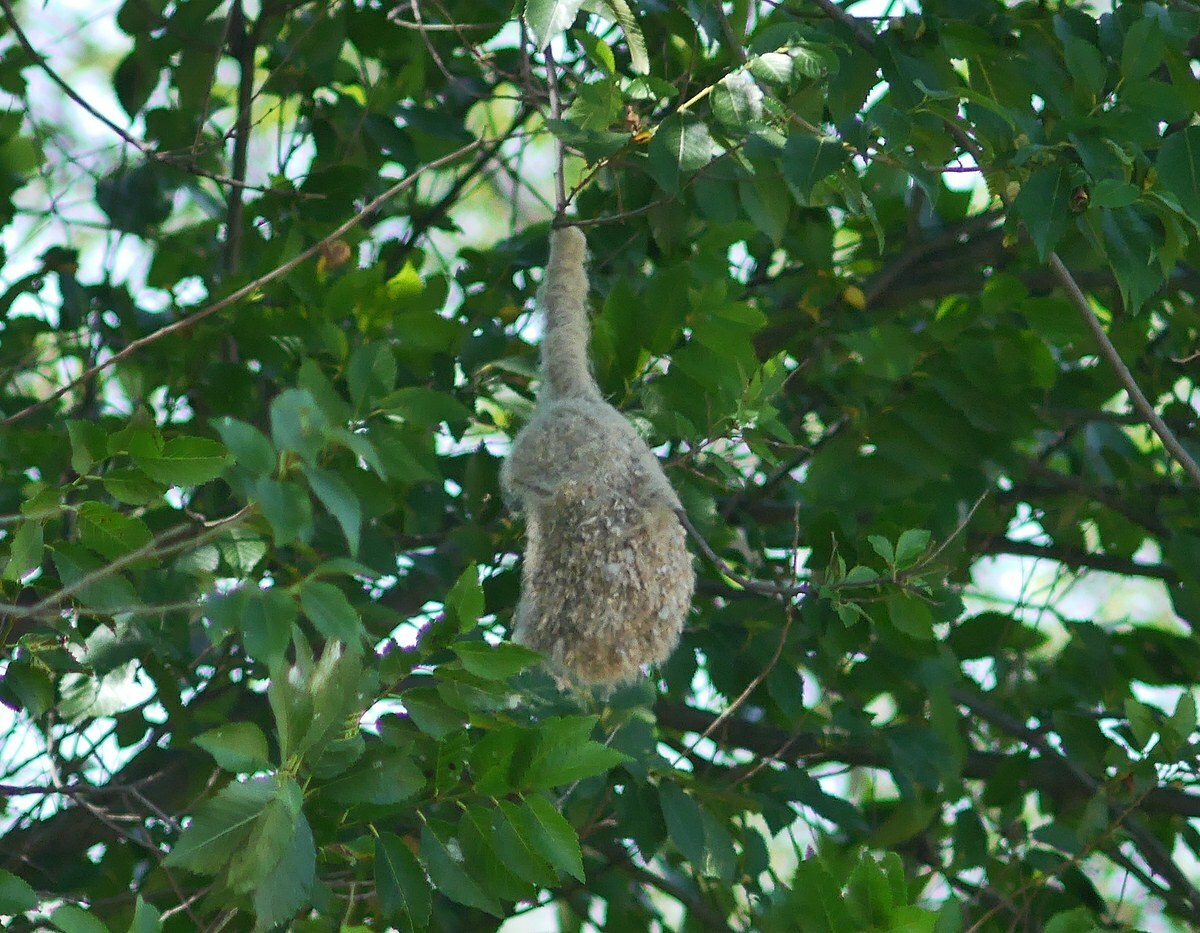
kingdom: Animalia
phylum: Chordata
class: Aves
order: Passeriformes
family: Remizidae
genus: Remiz
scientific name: Remiz pendulinus
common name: Eurasian penduline tit
